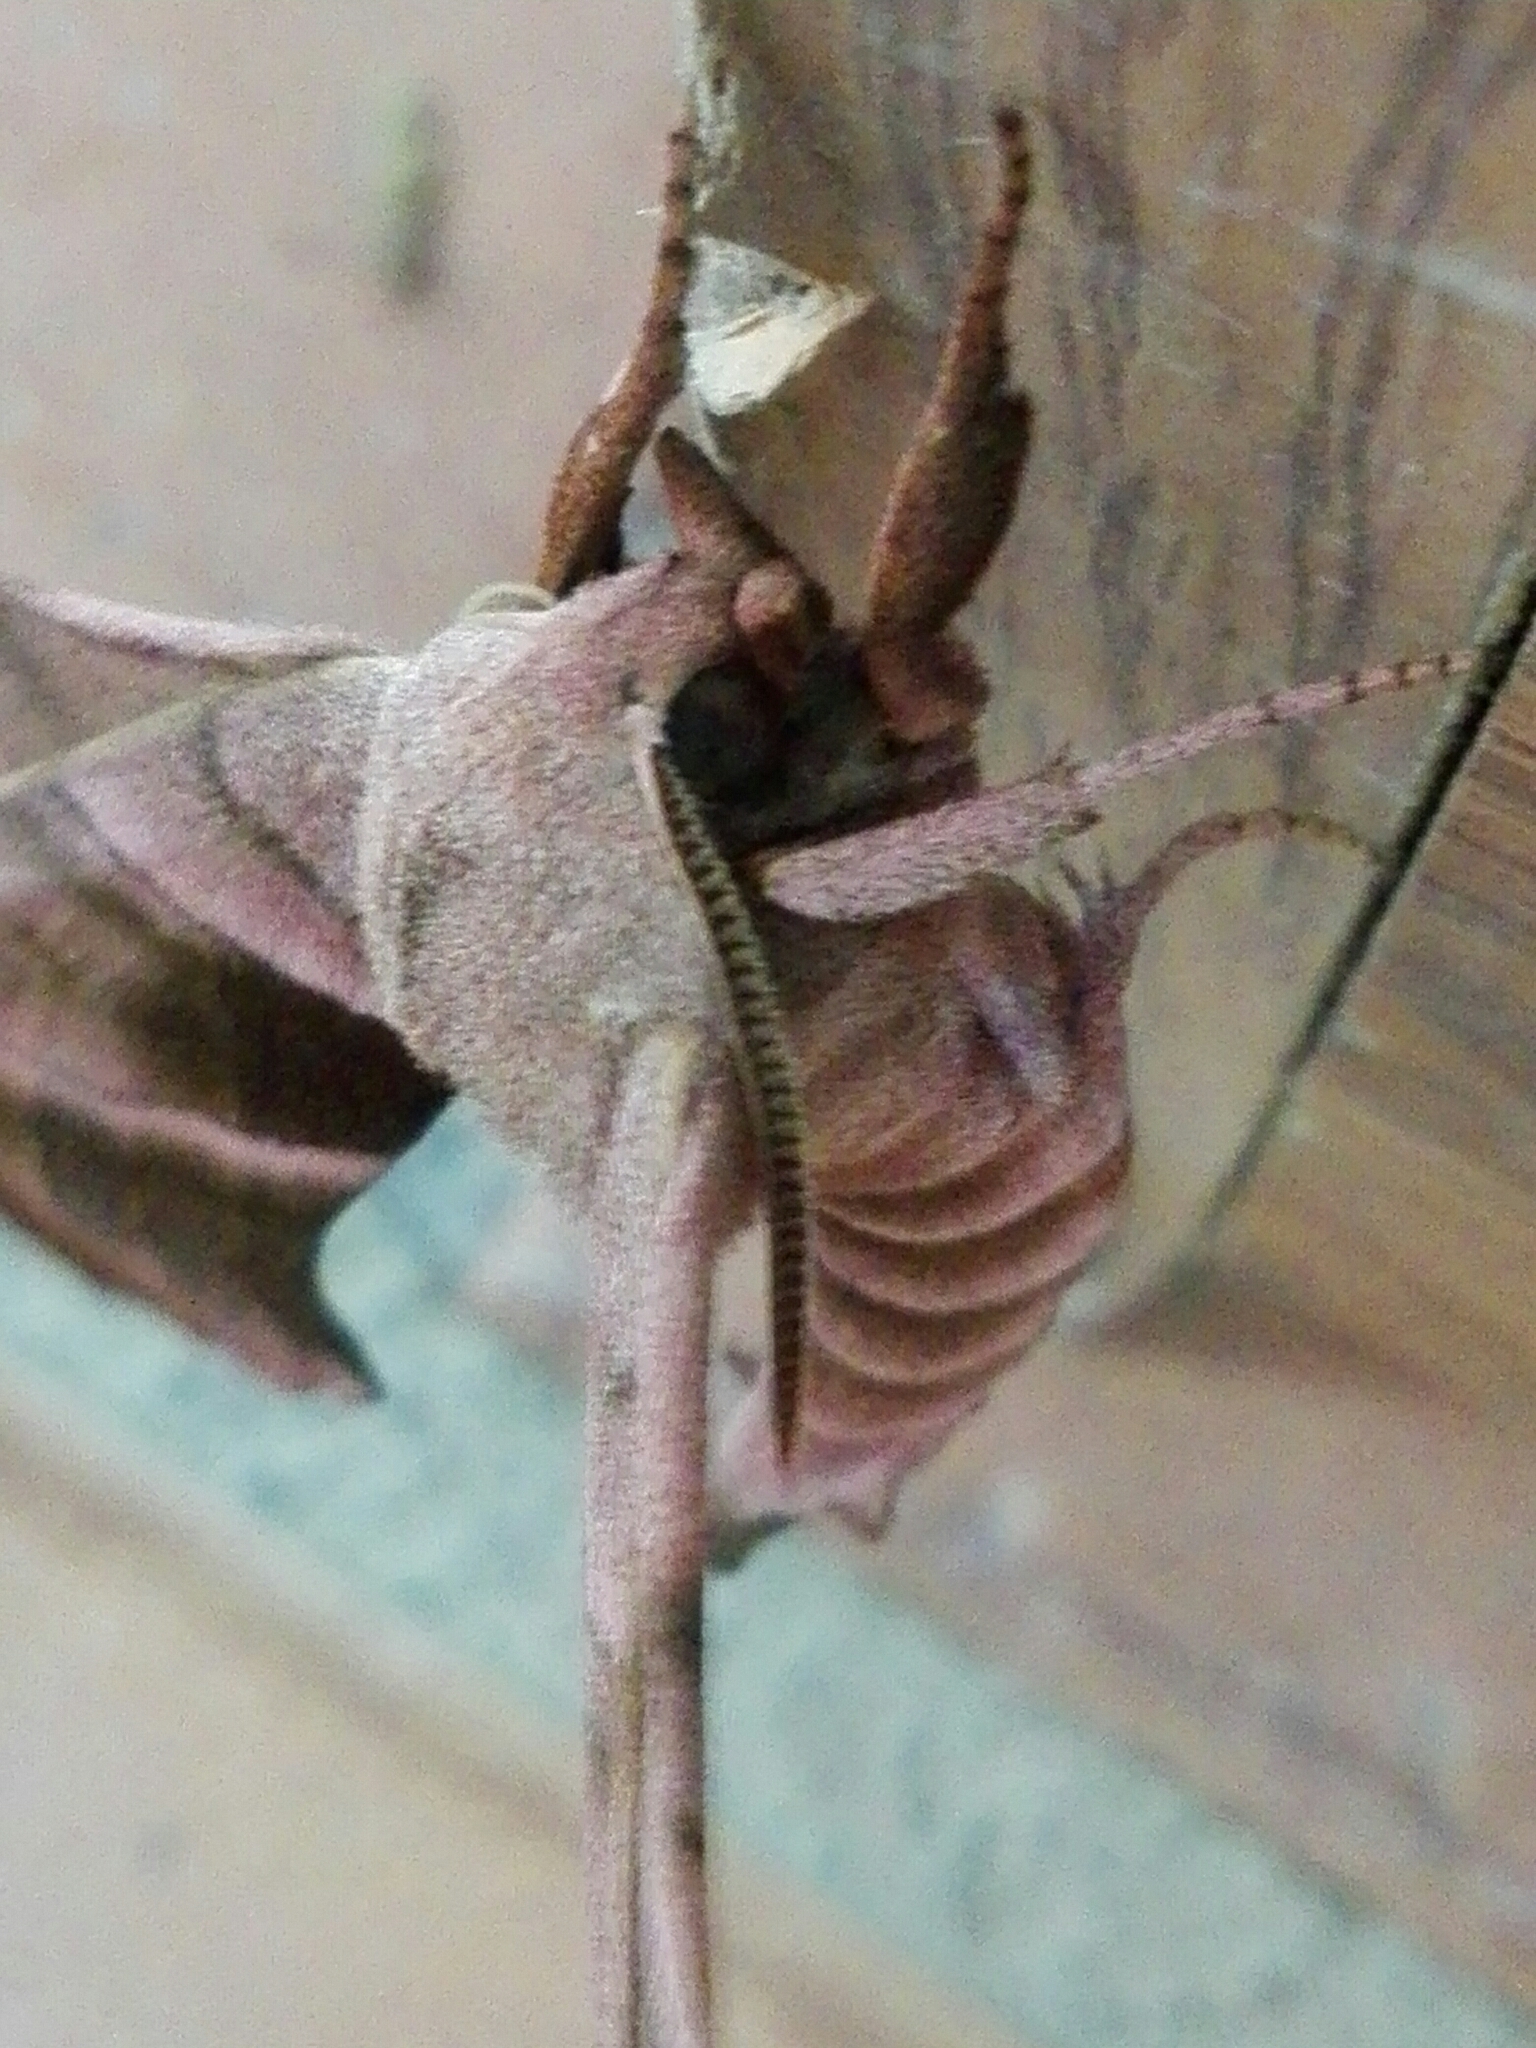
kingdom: Animalia
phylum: Arthropoda
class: Insecta
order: Lepidoptera
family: Sphingidae
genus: Amorpha
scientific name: Amorpha juglandis
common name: Walnut sphinx
